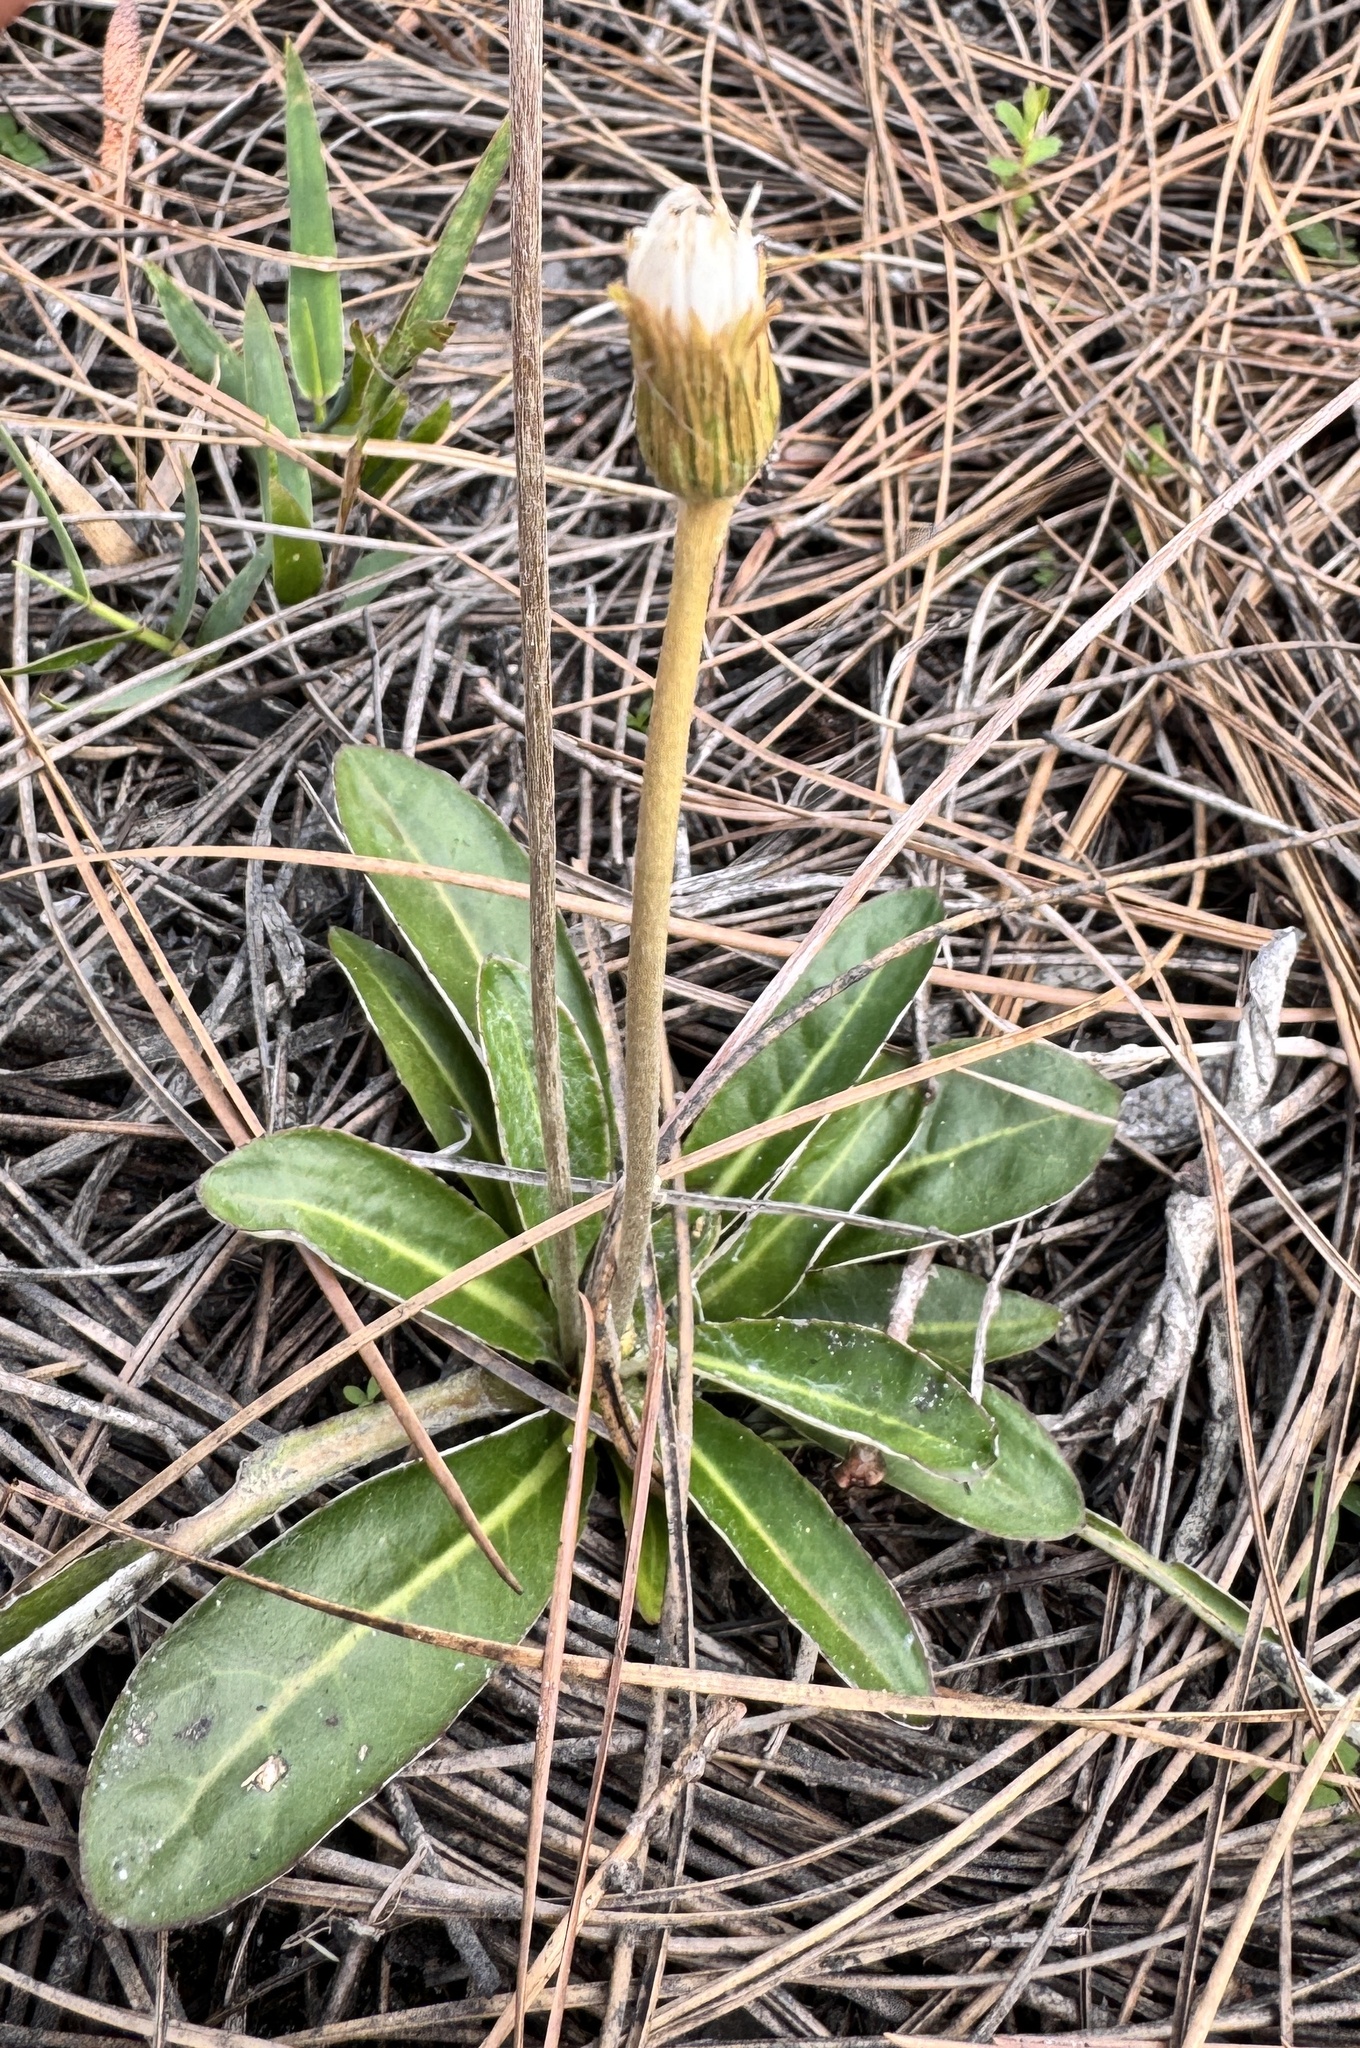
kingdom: Plantae
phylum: Tracheophyta
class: Magnoliopsida
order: Asterales
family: Asteraceae
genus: Chaptalia
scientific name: Chaptalia tomentosa
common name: Woolly sunbonnet
